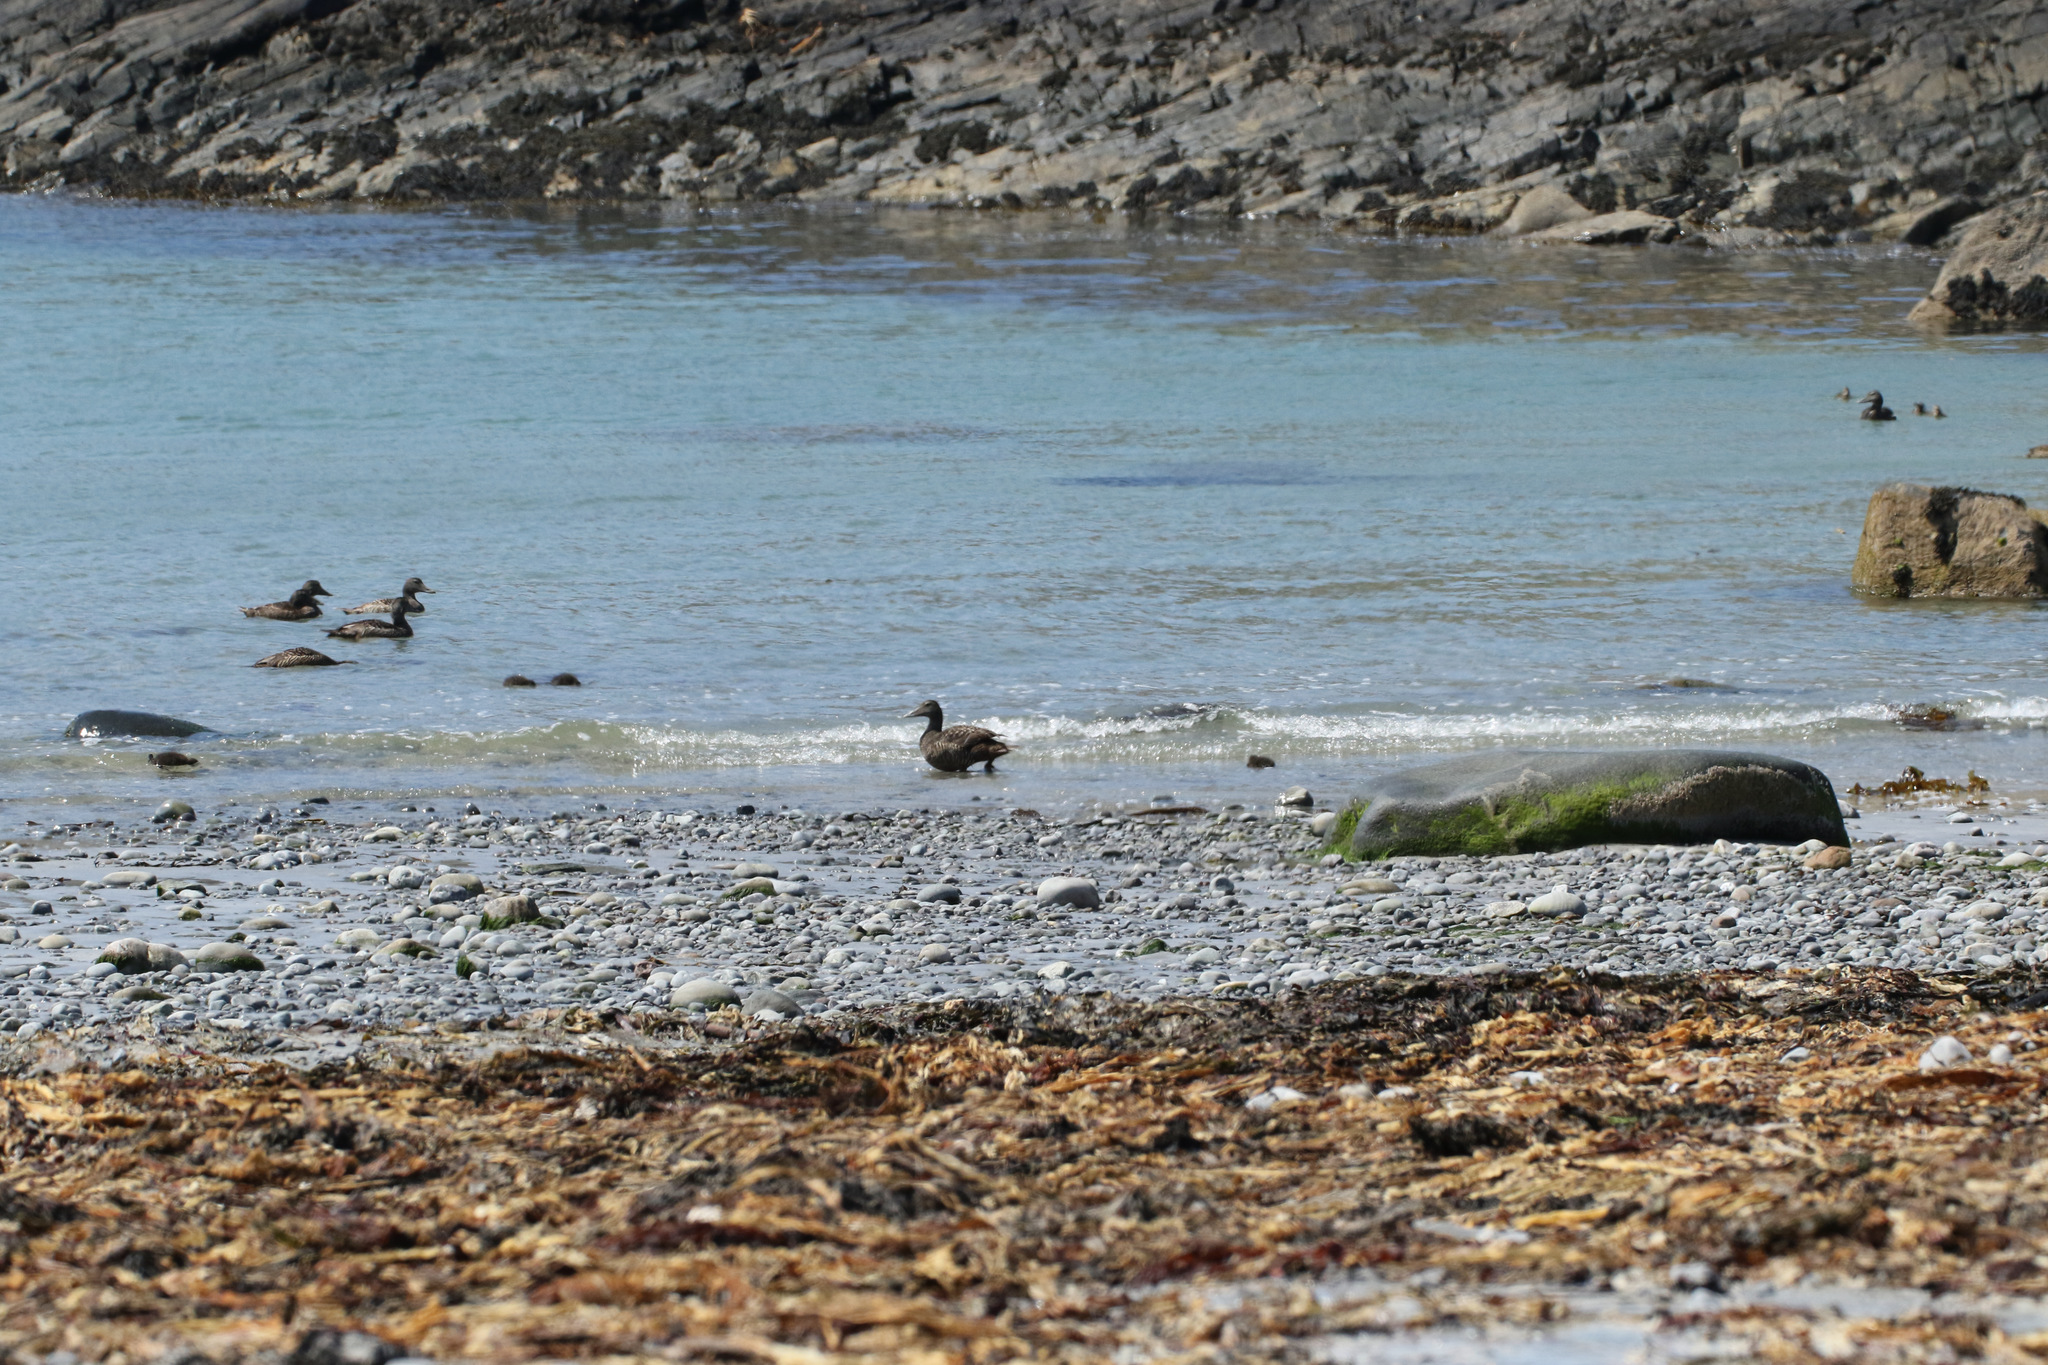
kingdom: Animalia
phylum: Chordata
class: Aves
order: Anseriformes
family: Anatidae
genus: Somateria
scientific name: Somateria mollissima
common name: Common eider
